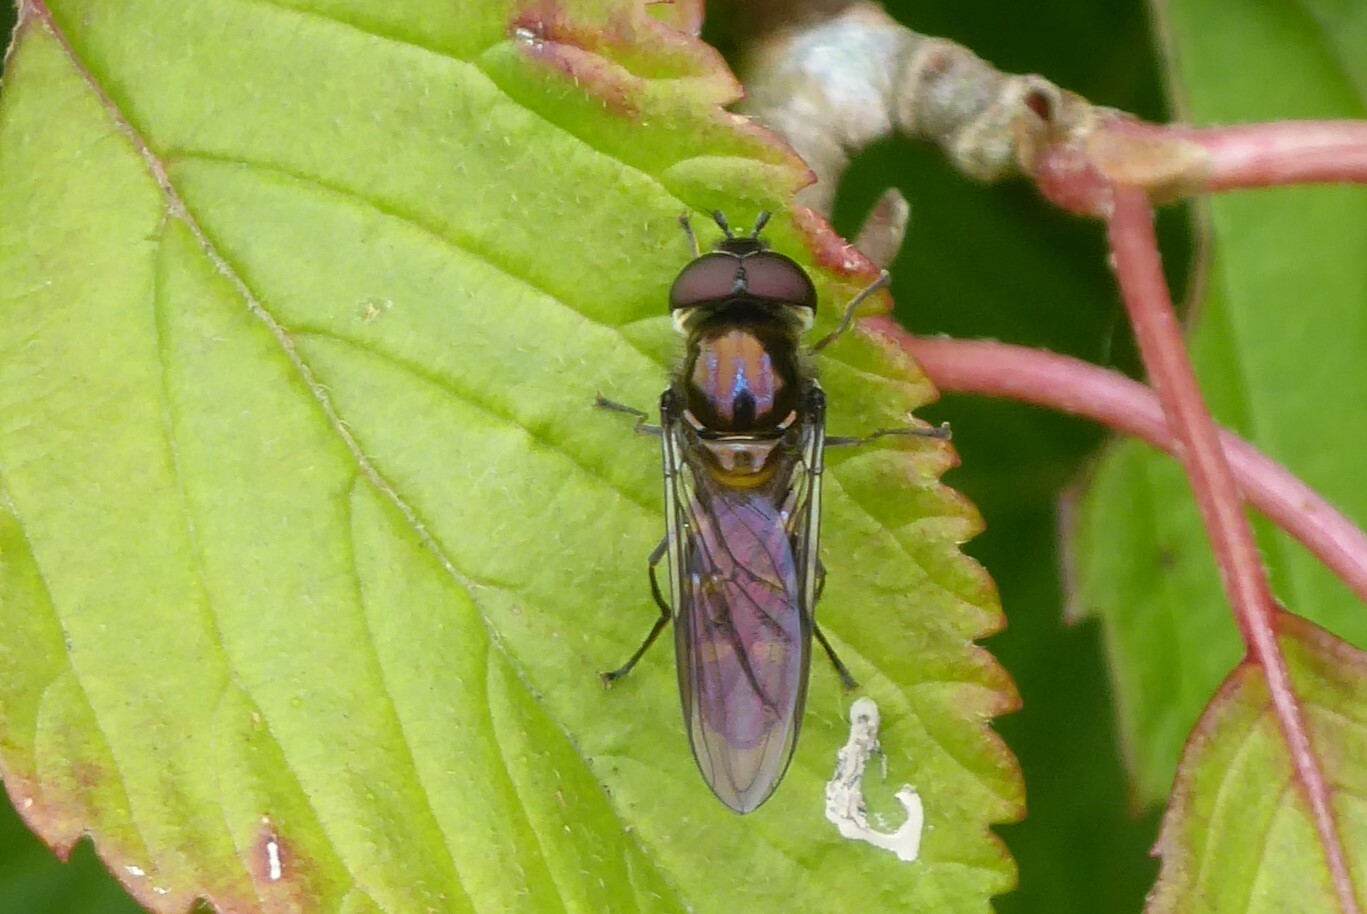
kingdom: Animalia
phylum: Arthropoda
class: Insecta
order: Diptera
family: Syrphidae
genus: Melangyna
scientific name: Melangyna novaezelandiae
